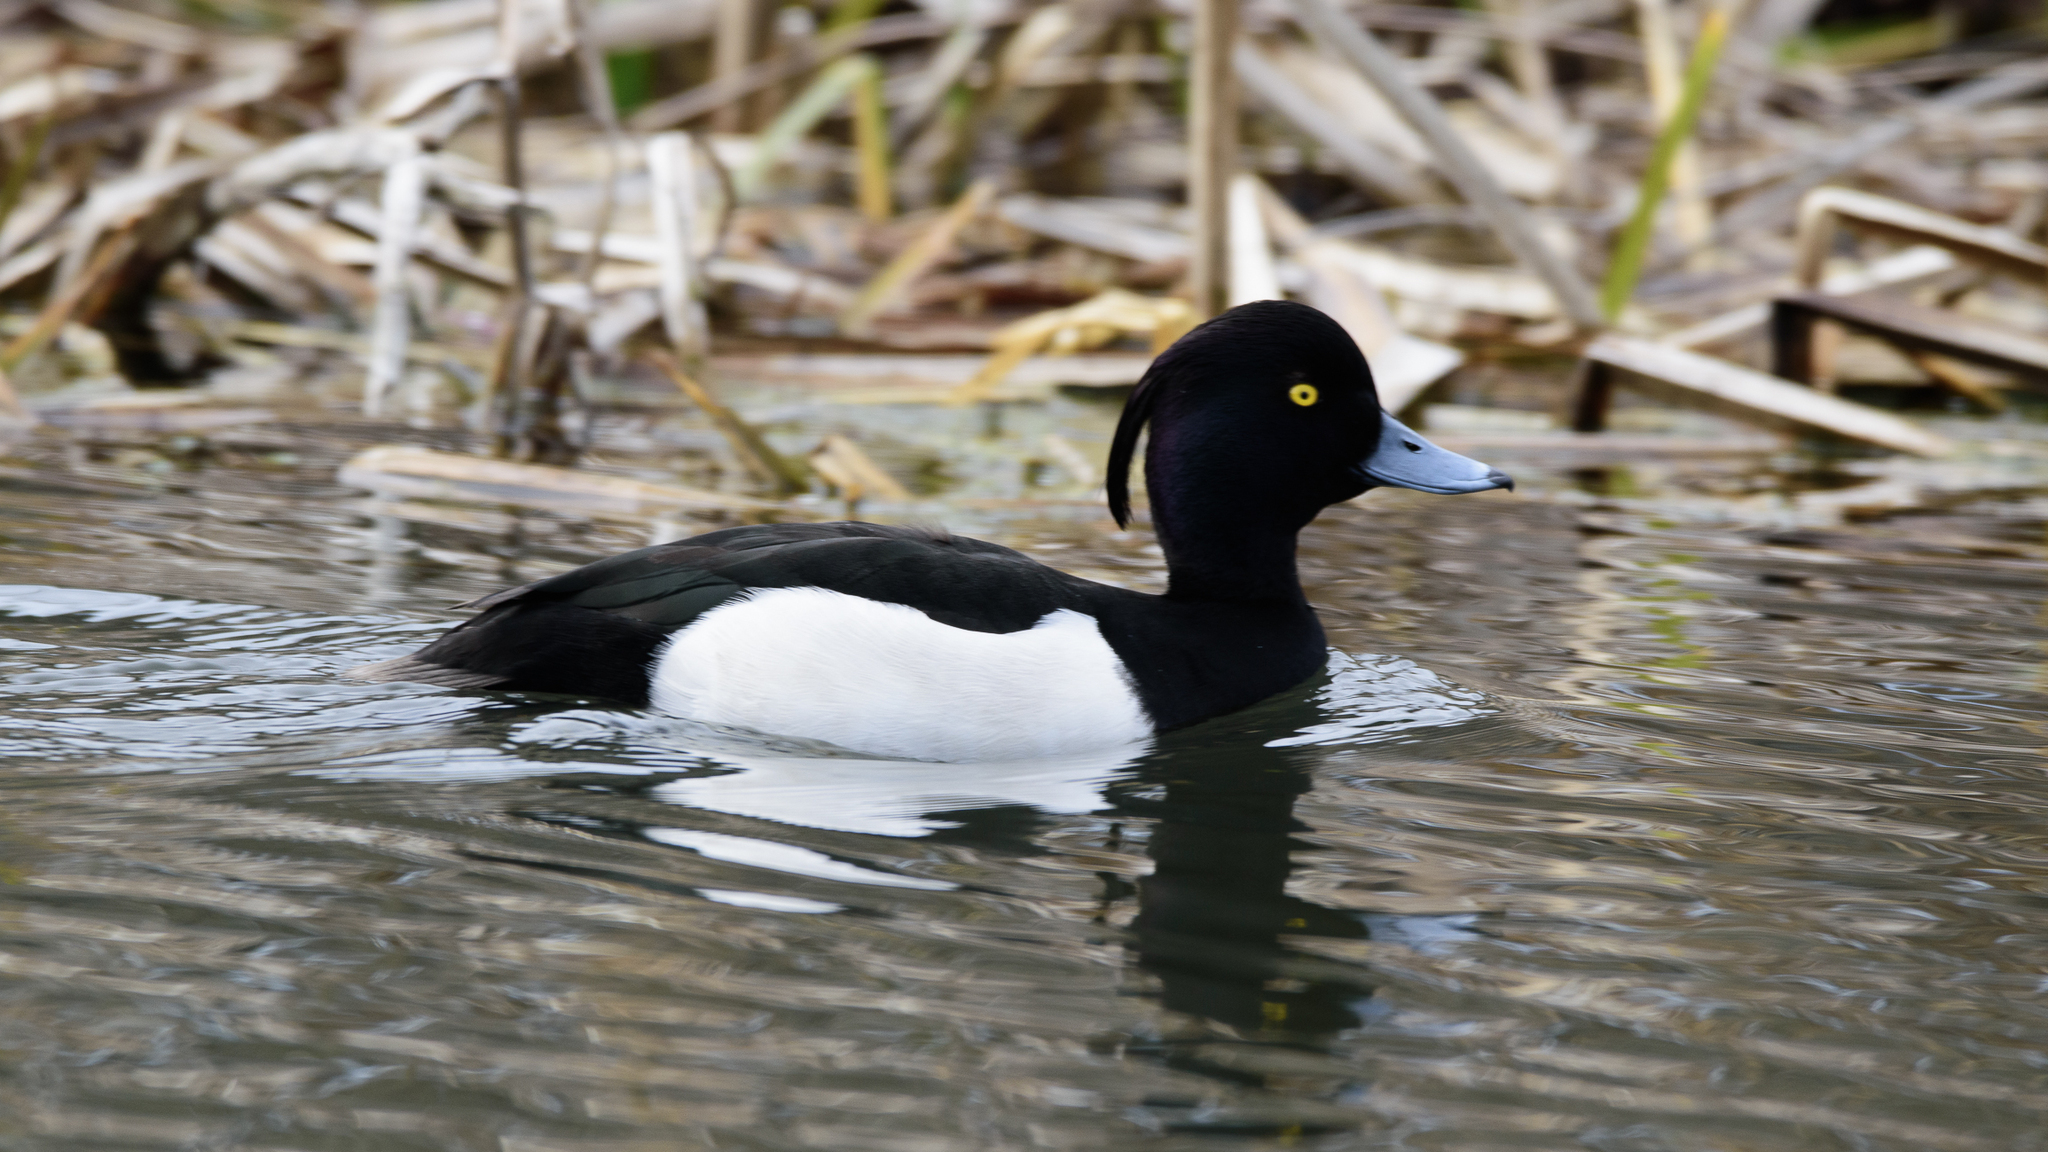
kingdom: Animalia
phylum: Chordata
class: Aves
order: Anseriformes
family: Anatidae
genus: Aythya
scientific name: Aythya fuligula
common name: Tufted duck
